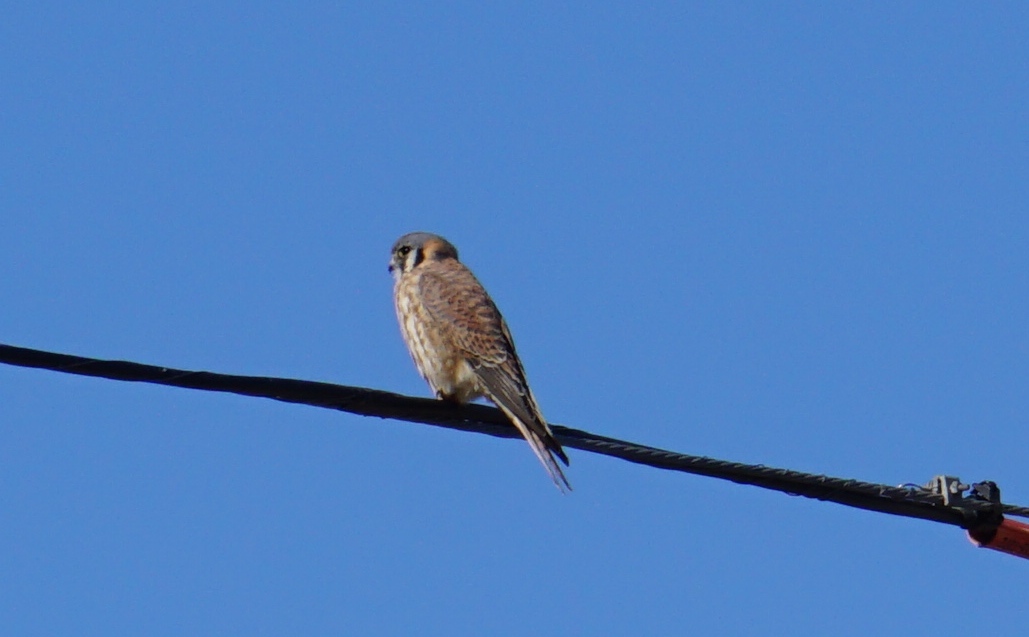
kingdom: Animalia
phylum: Chordata
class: Aves
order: Falconiformes
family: Falconidae
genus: Falco
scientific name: Falco sparverius
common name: American kestrel
